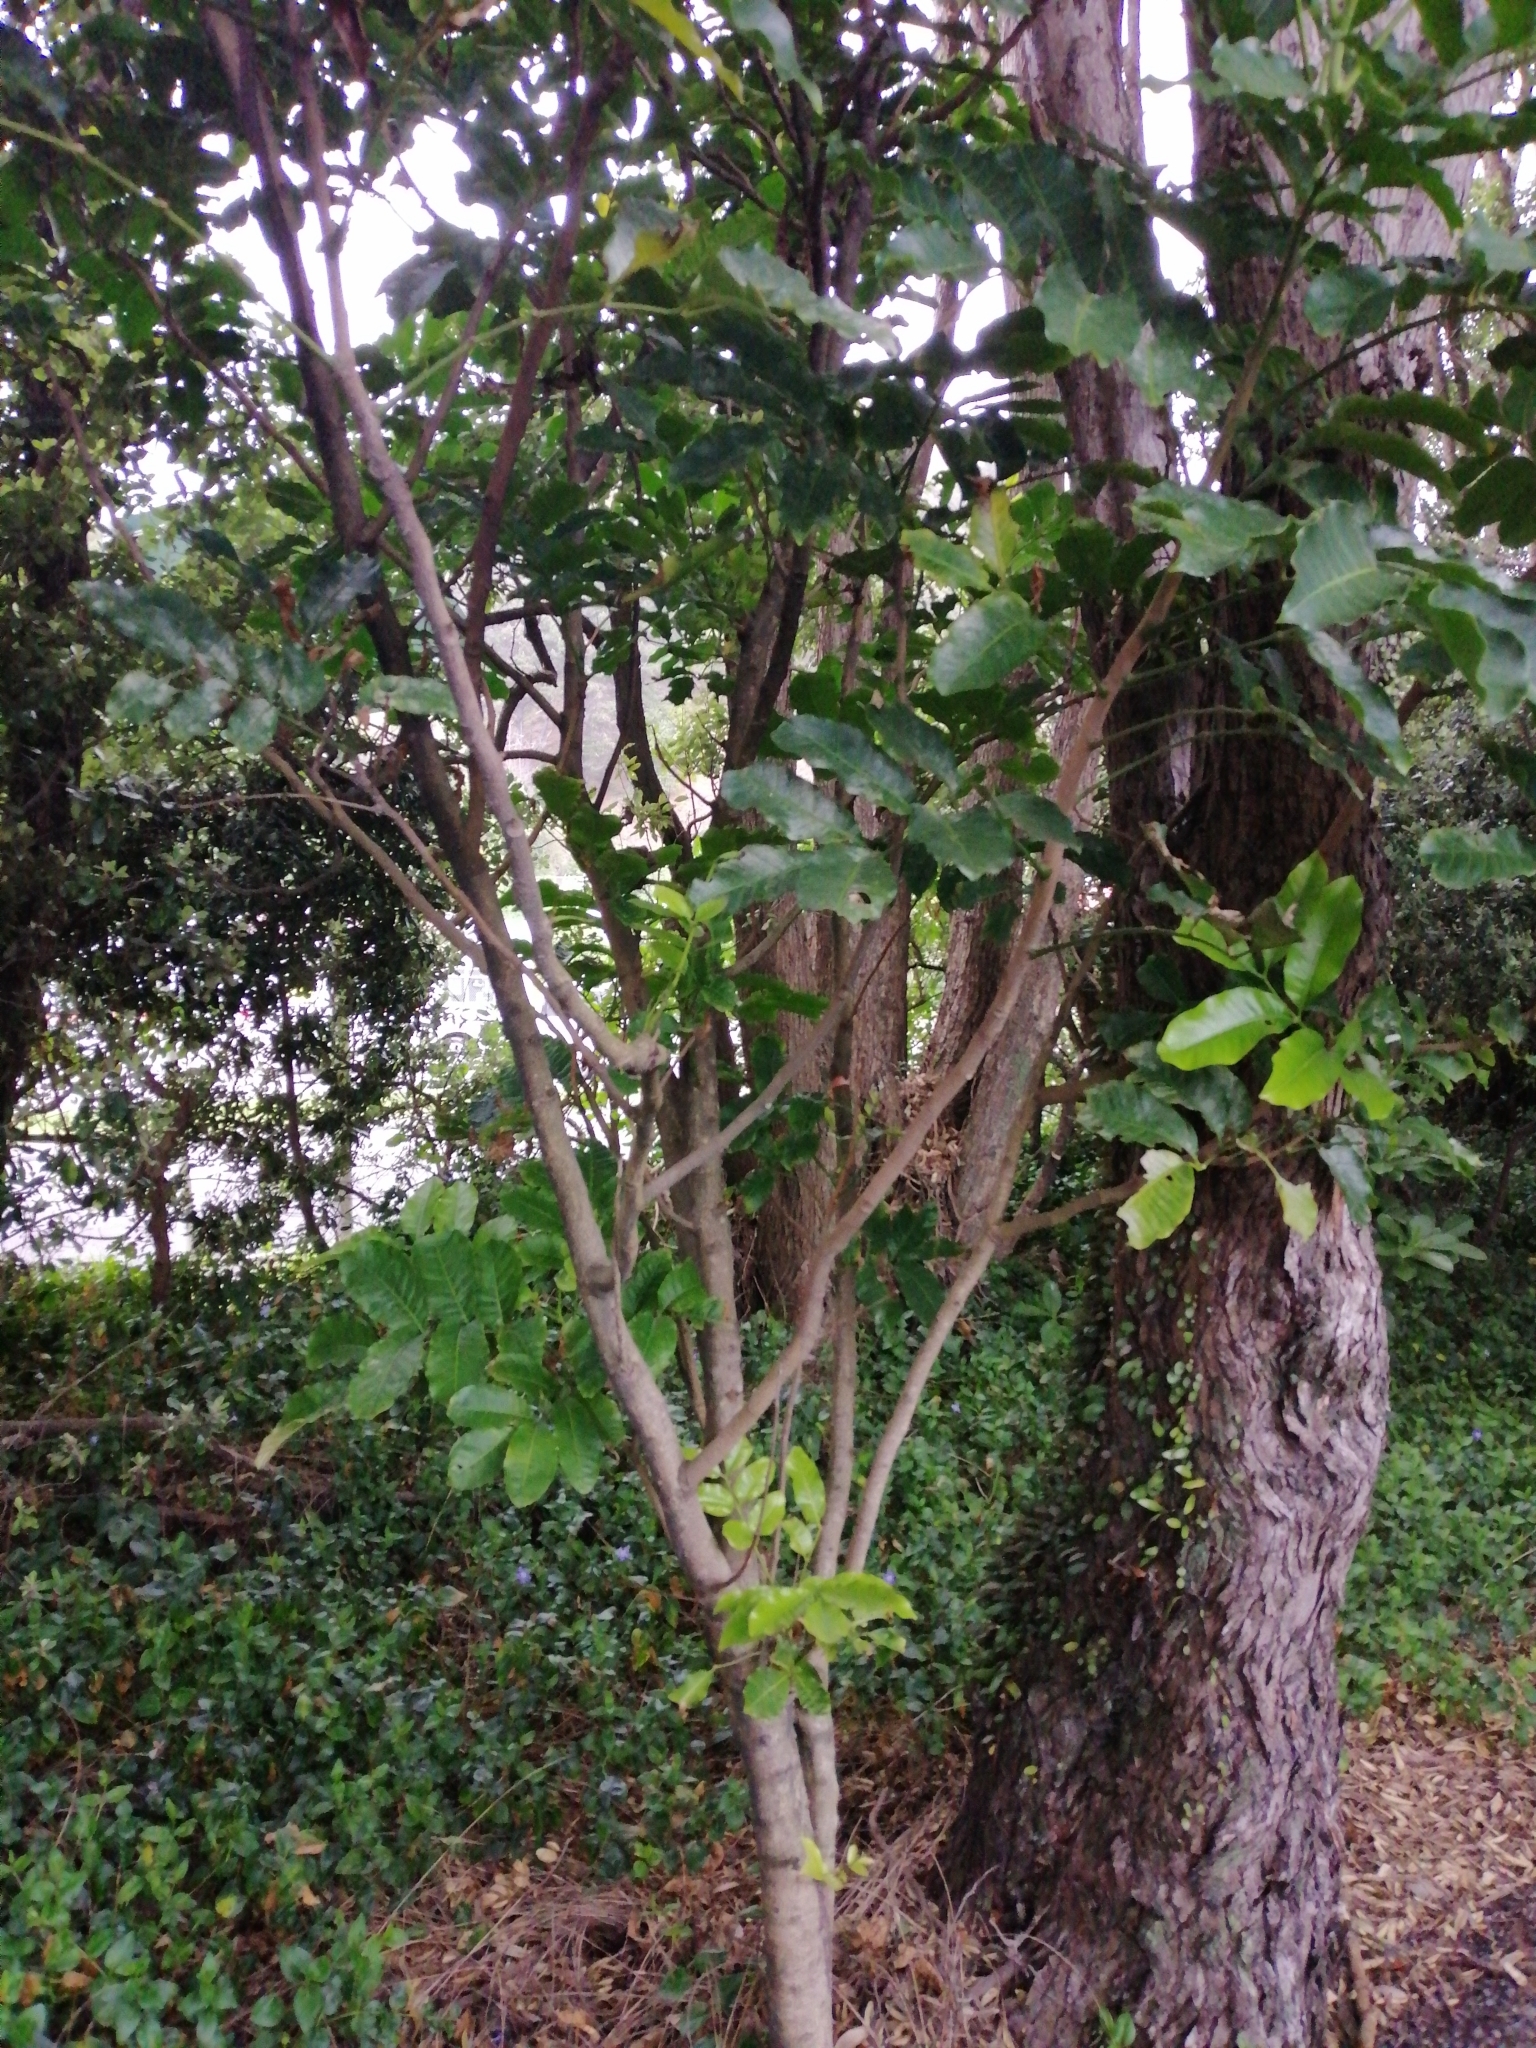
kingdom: Plantae
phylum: Tracheophyta
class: Magnoliopsida
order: Sapindales
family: Meliaceae
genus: Didymocheton
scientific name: Didymocheton spectabilis
